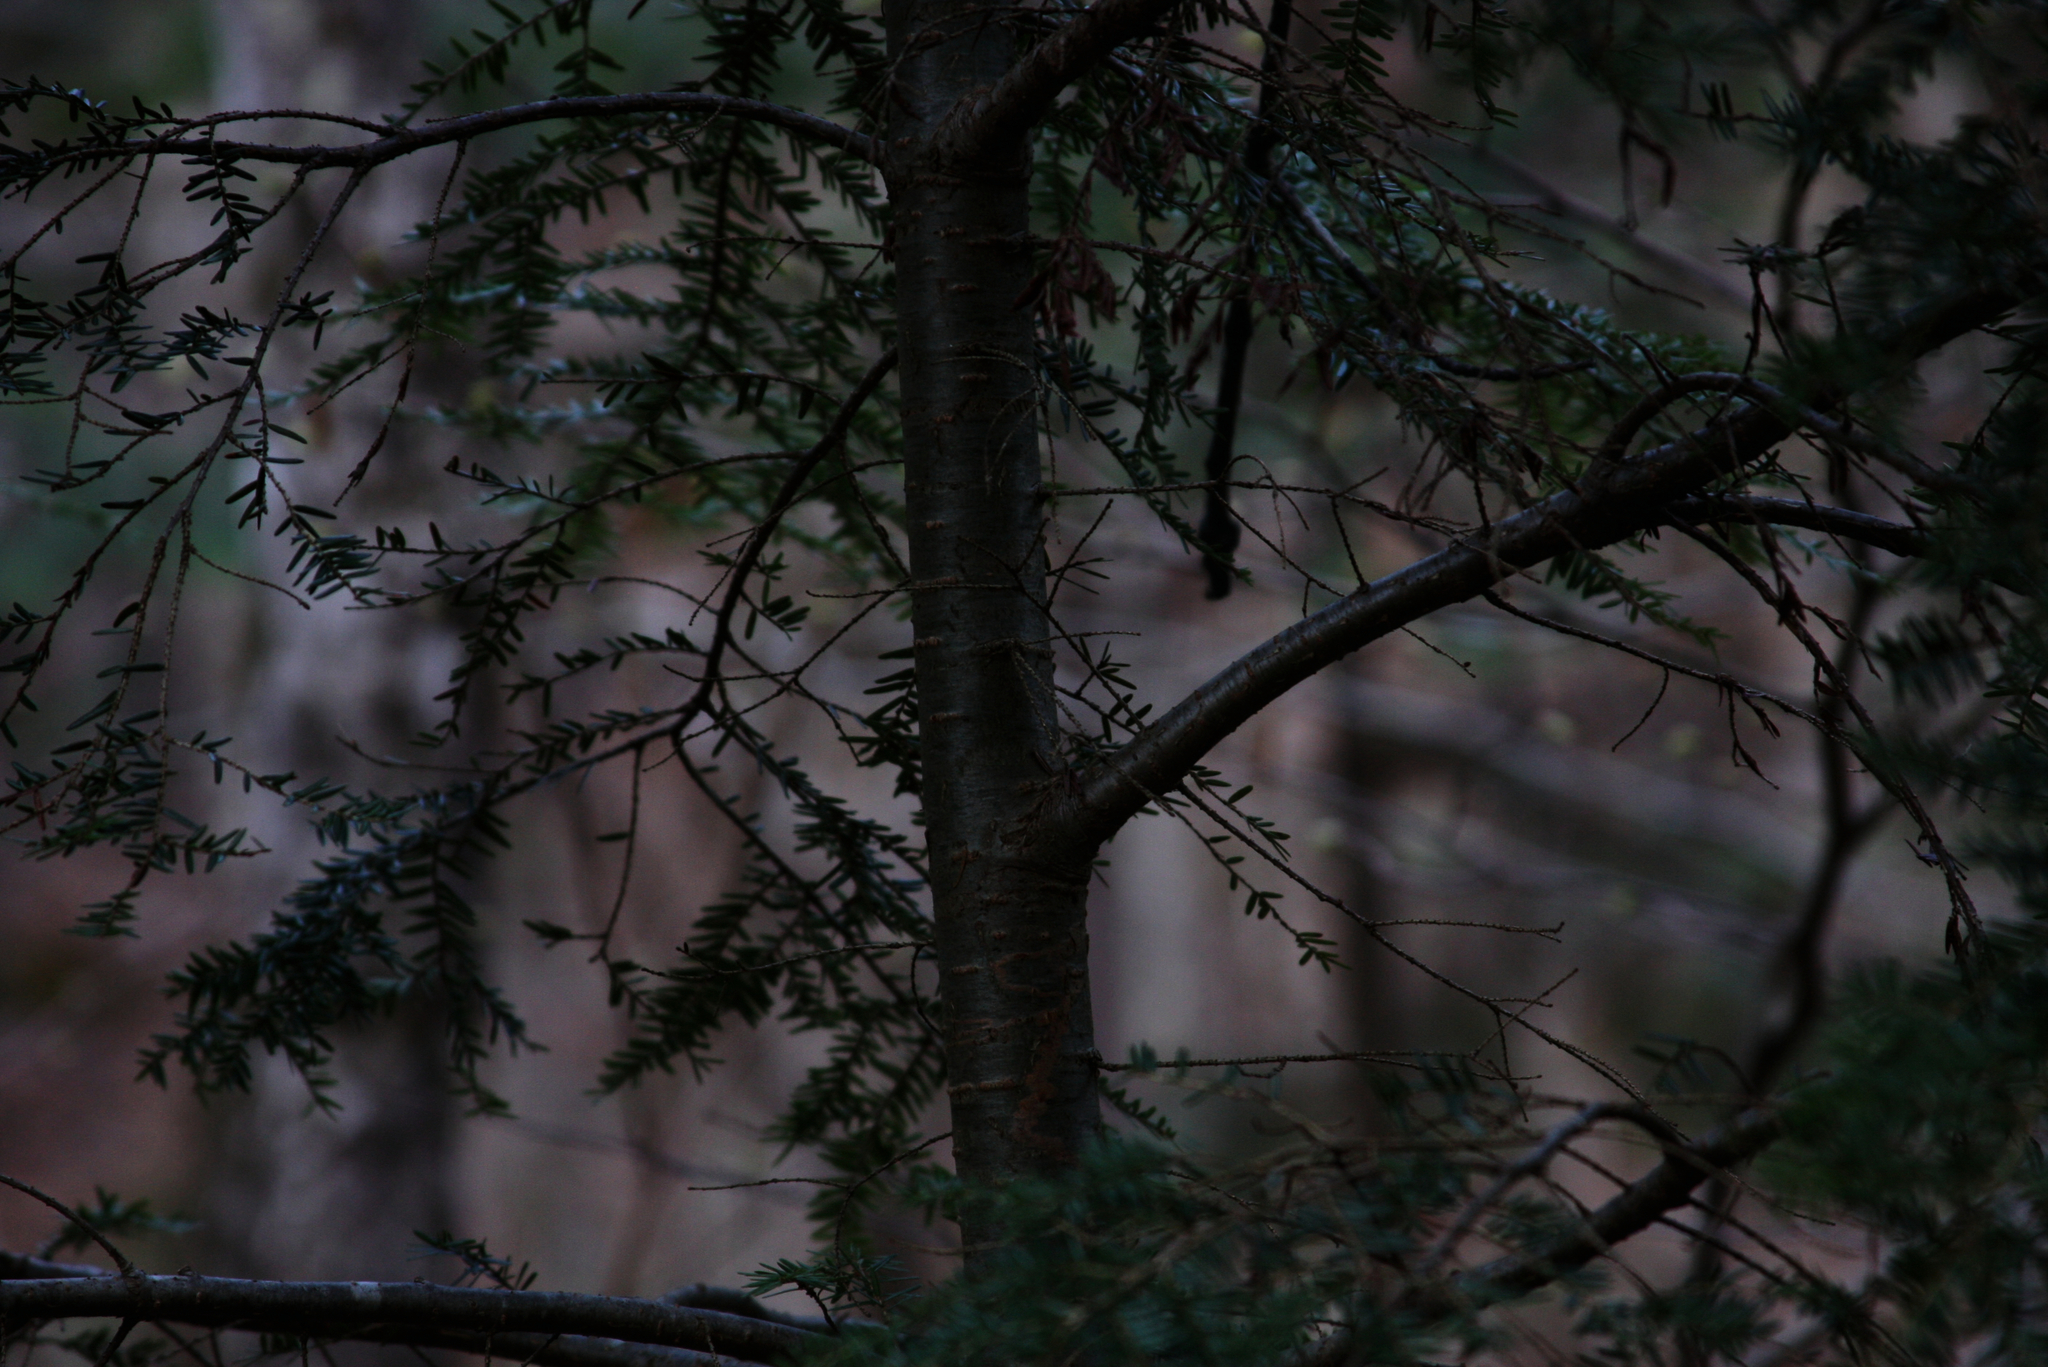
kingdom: Plantae
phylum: Tracheophyta
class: Pinopsida
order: Pinales
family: Pinaceae
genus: Tsuga
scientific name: Tsuga canadensis
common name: Eastern hemlock
